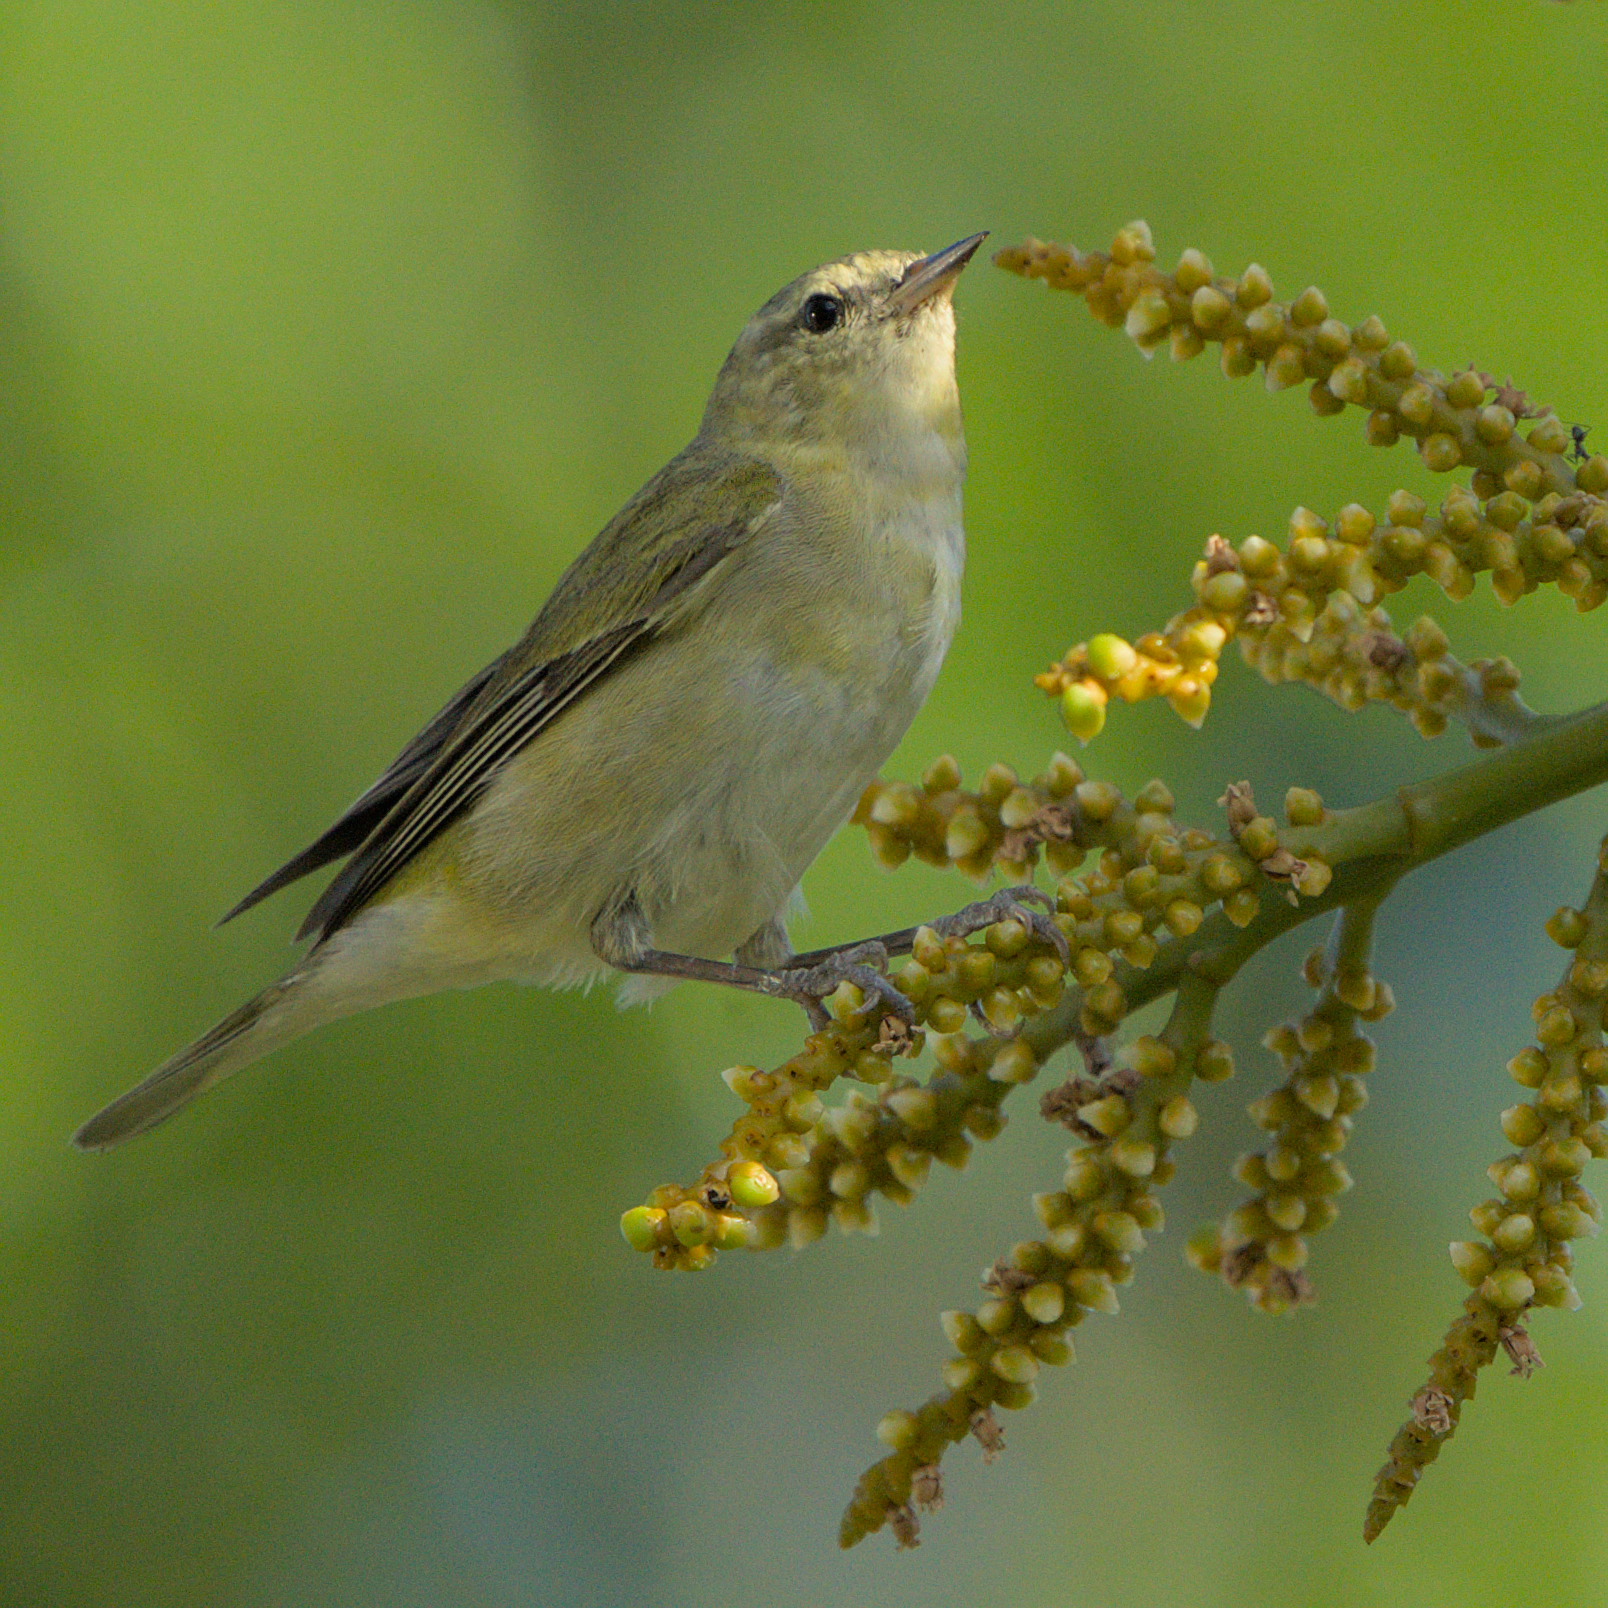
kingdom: Animalia
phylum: Chordata
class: Aves
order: Passeriformes
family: Parulidae
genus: Leiothlypis
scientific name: Leiothlypis peregrina
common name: Tennessee warbler
